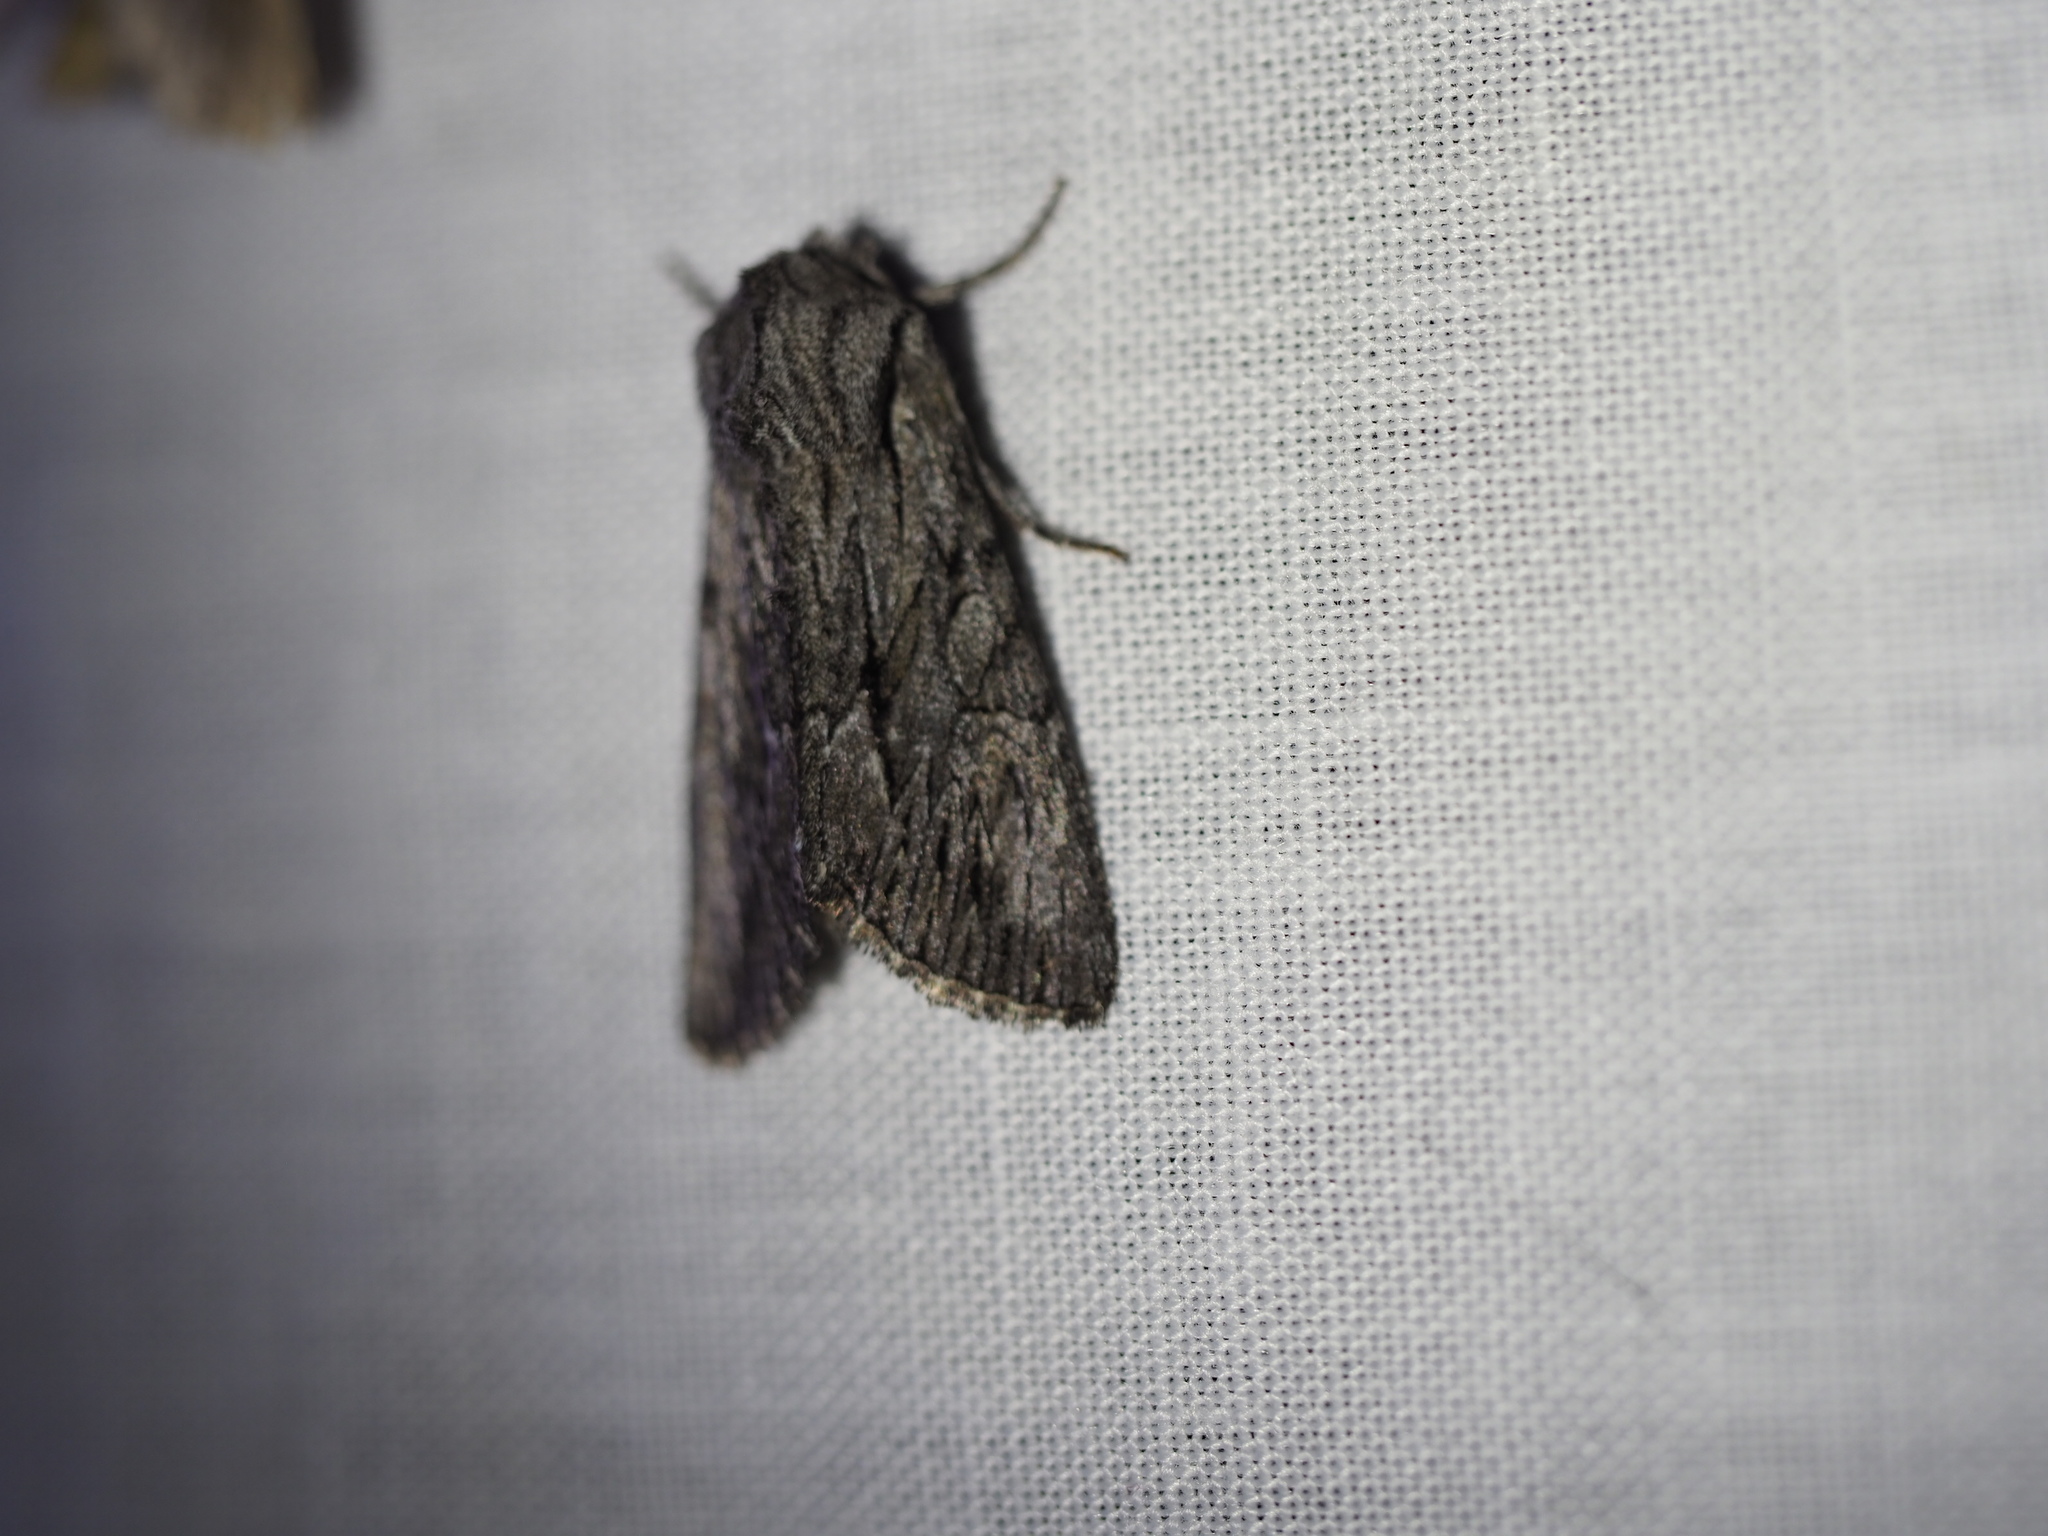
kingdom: Animalia
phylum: Arthropoda
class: Insecta
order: Lepidoptera
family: Noctuidae
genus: Fishia
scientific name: Fishia yosemitae
